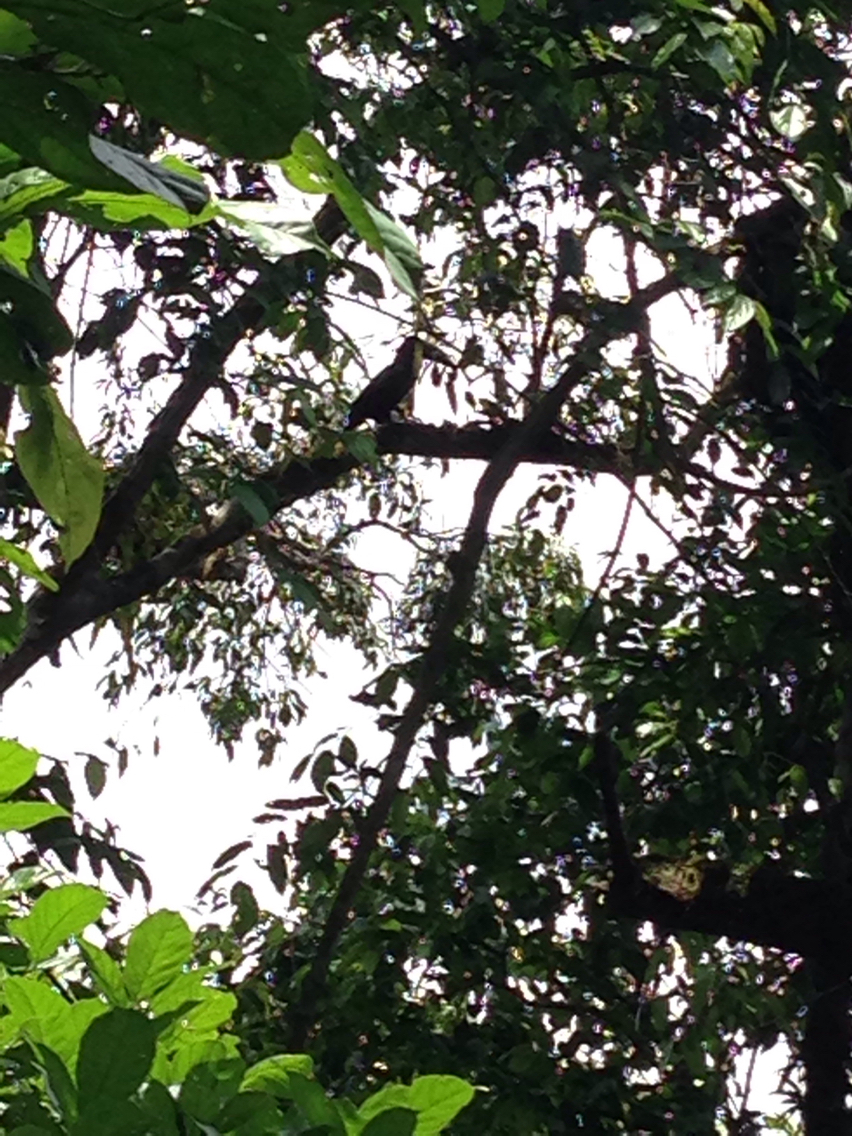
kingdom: Animalia
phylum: Chordata
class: Aves
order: Piciformes
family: Ramphastidae
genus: Ramphastos
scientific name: Ramphastos ambiguus
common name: Yellow-throated toucan
